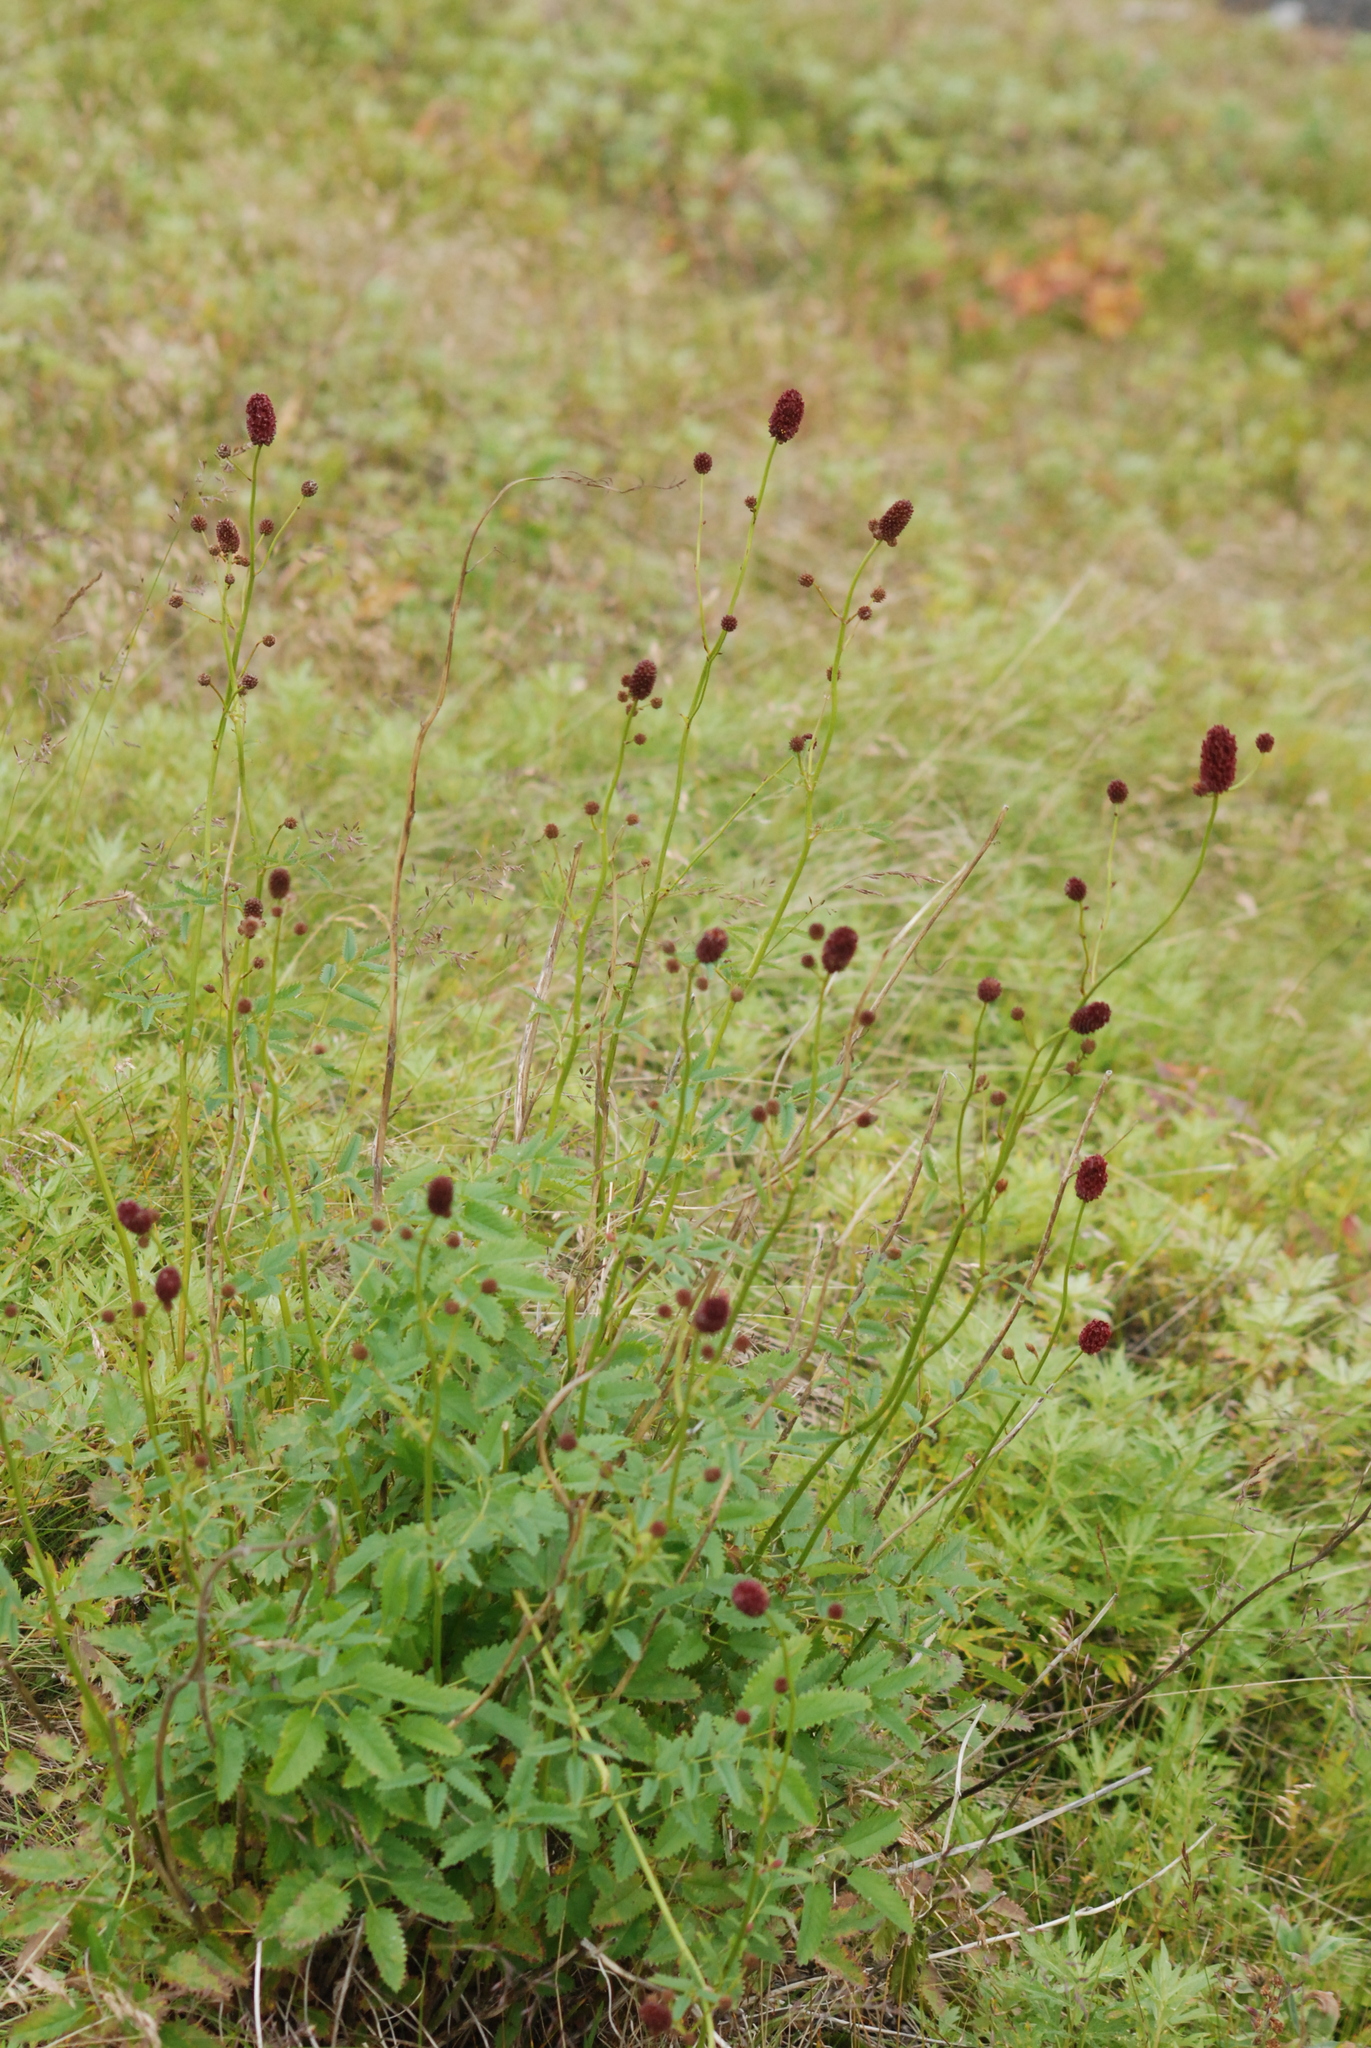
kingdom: Plantae
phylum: Tracheophyta
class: Magnoliopsida
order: Rosales
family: Rosaceae
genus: Sanguisorba
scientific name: Sanguisorba officinalis
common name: Great burnet
